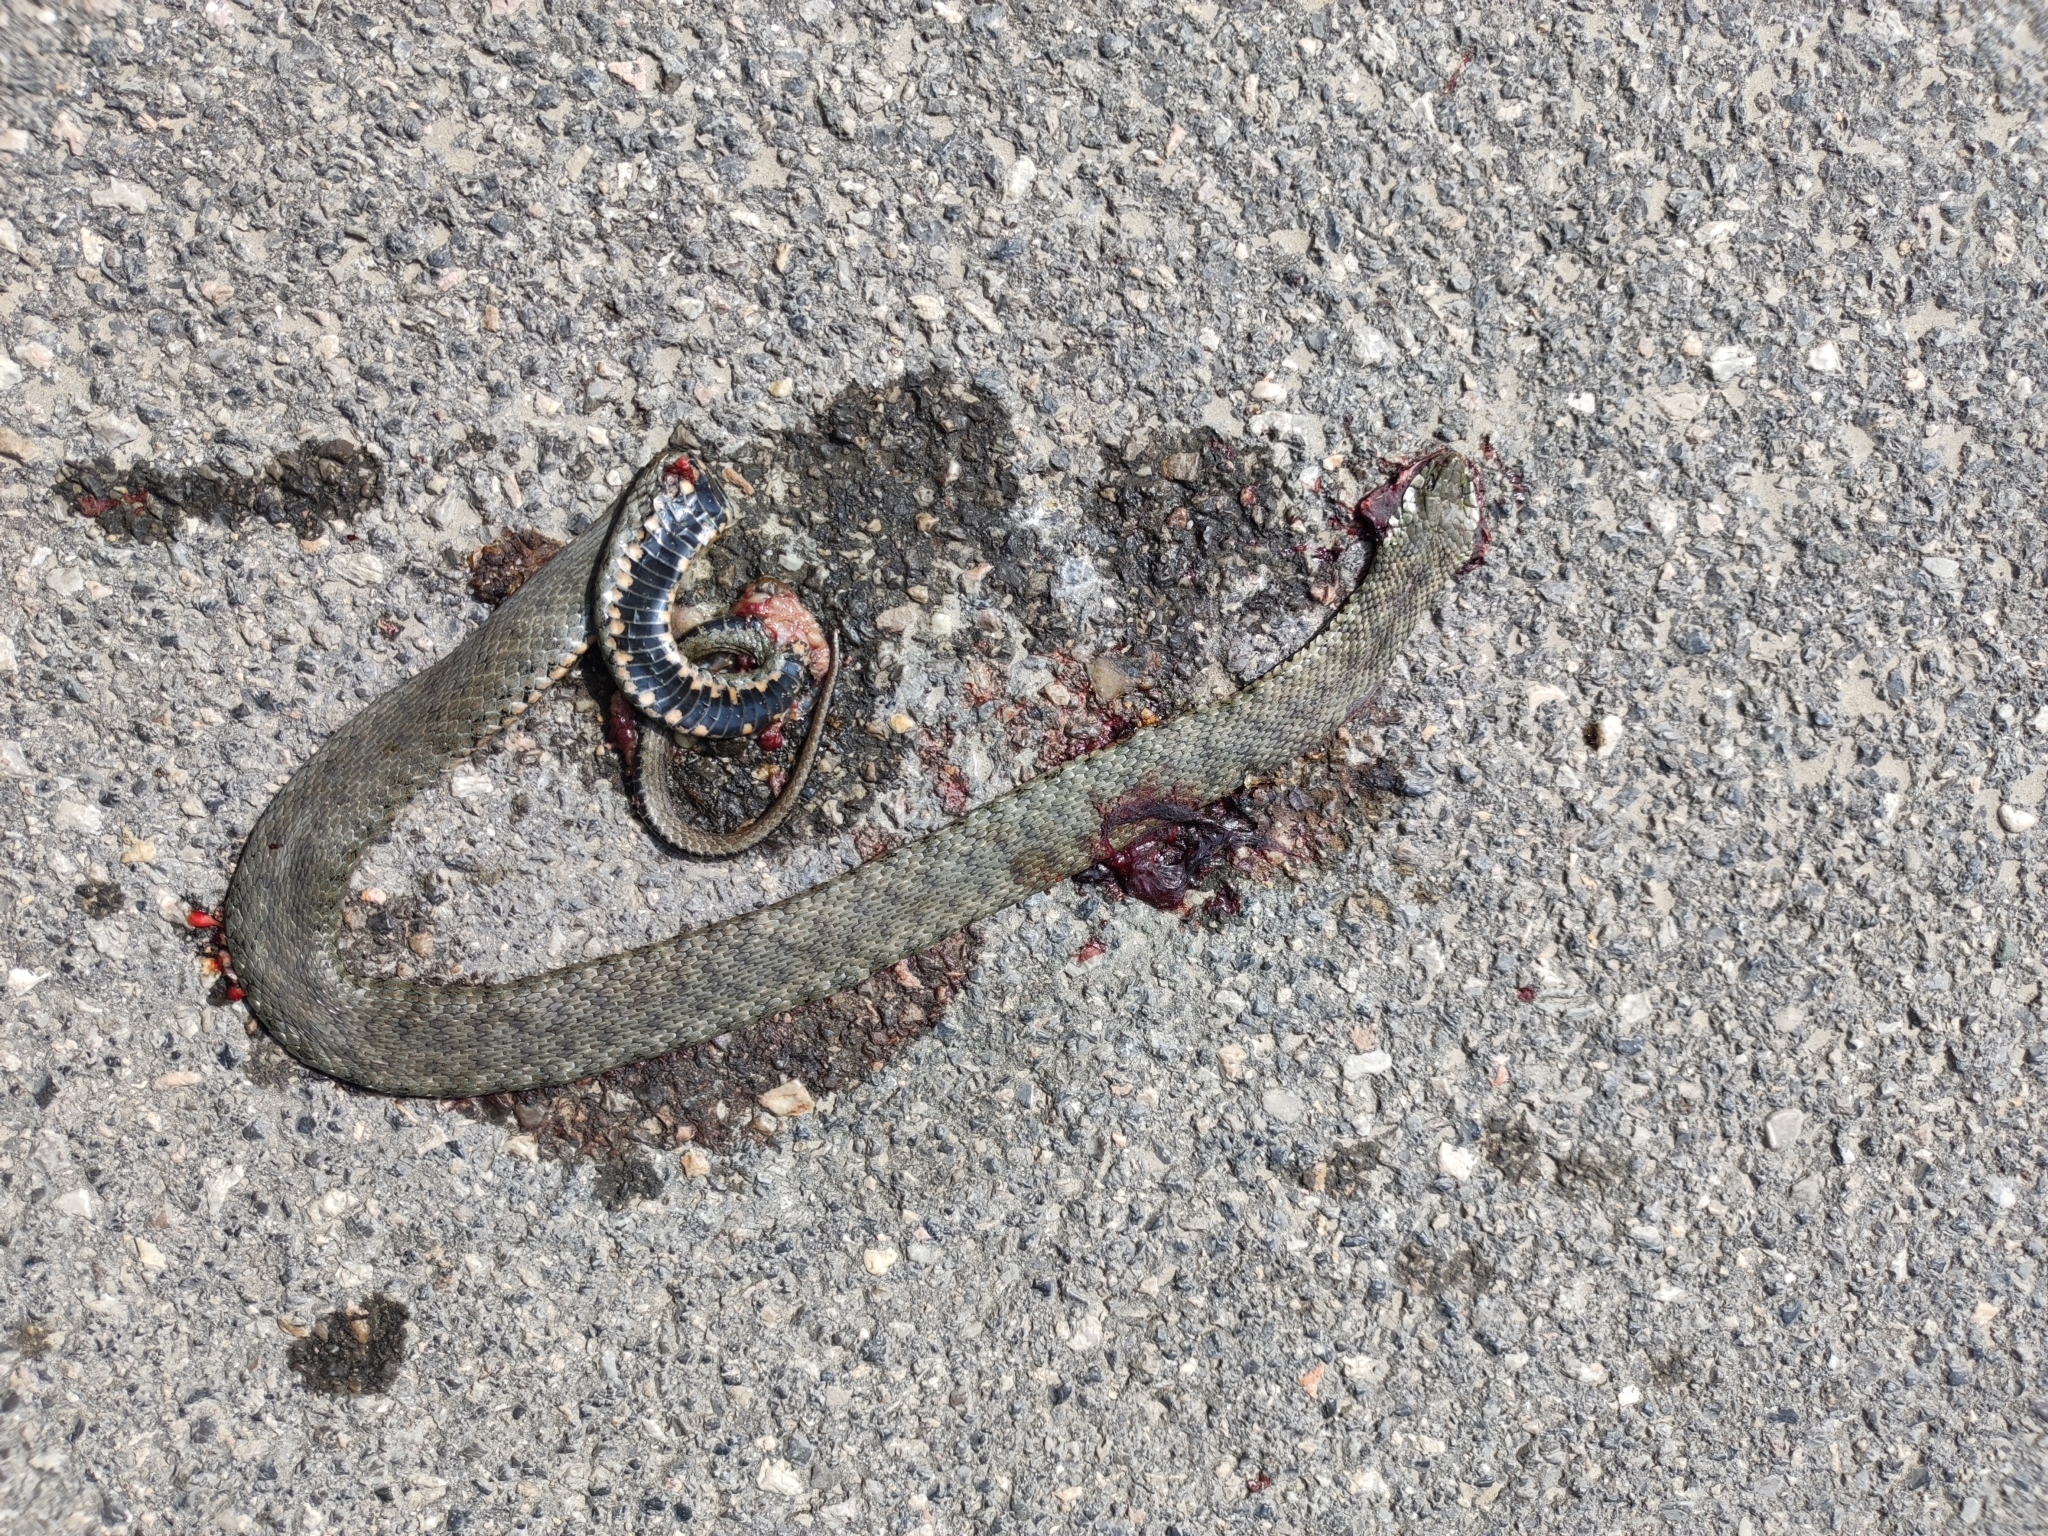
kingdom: Animalia
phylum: Chordata
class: Squamata
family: Colubridae
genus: Natrix
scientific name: Natrix tessellata
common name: Dice snake
